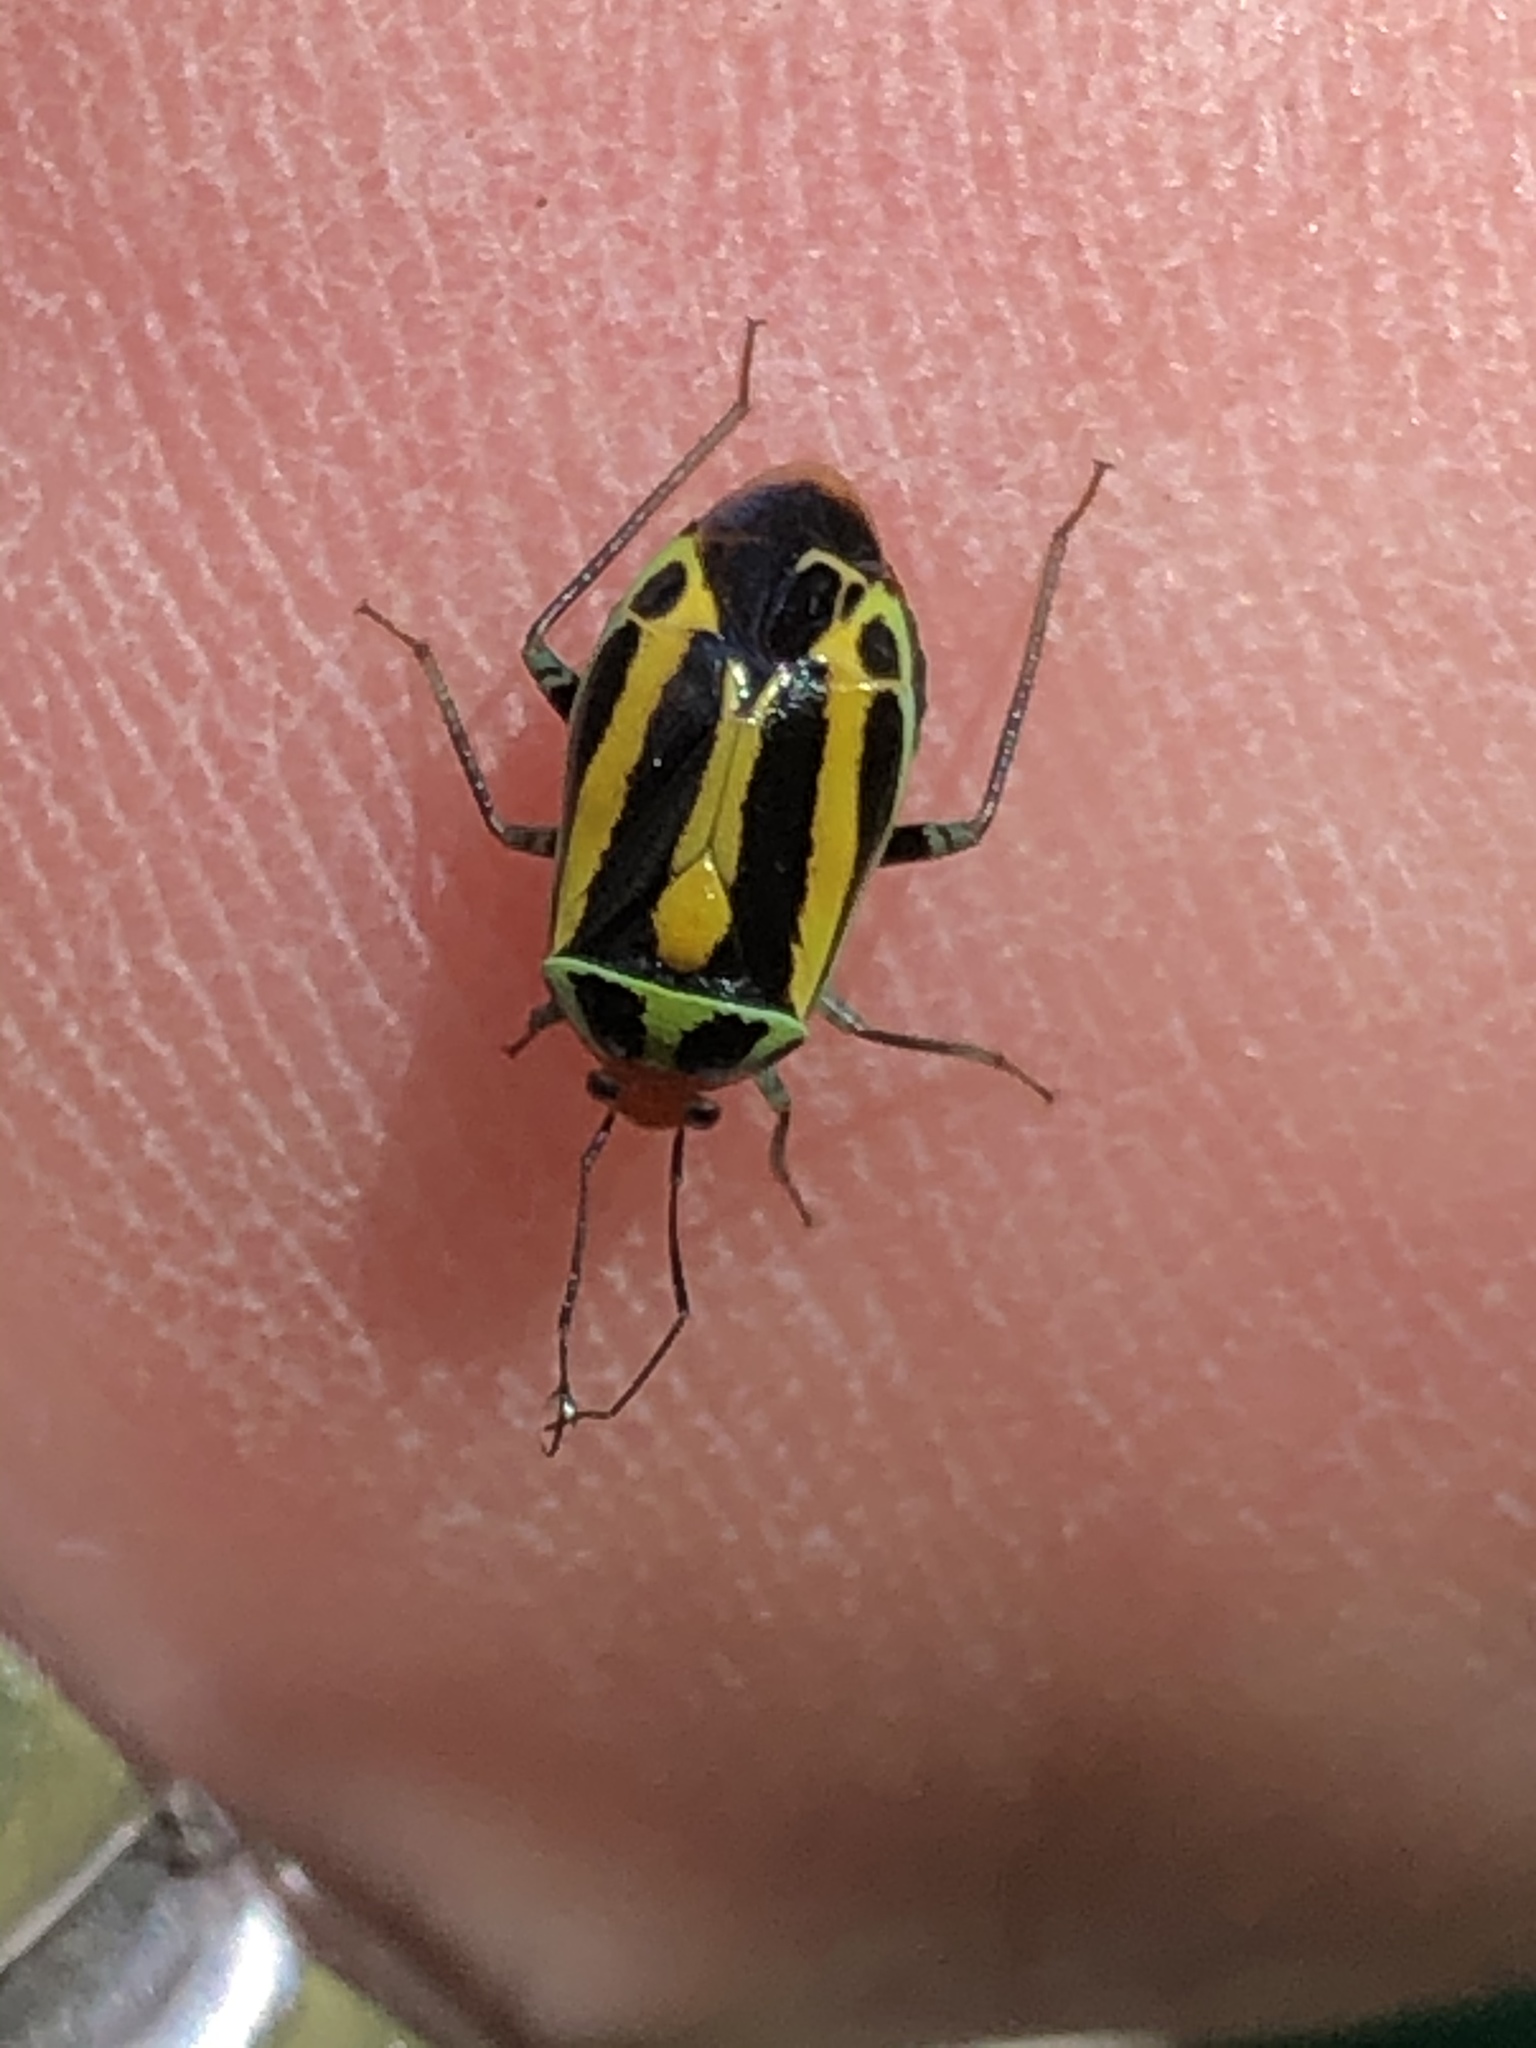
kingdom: Animalia
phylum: Arthropoda
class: Insecta
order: Hemiptera
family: Miridae
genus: Poecilocapsus
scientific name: Poecilocapsus lineatus
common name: Four-lined plant bug
